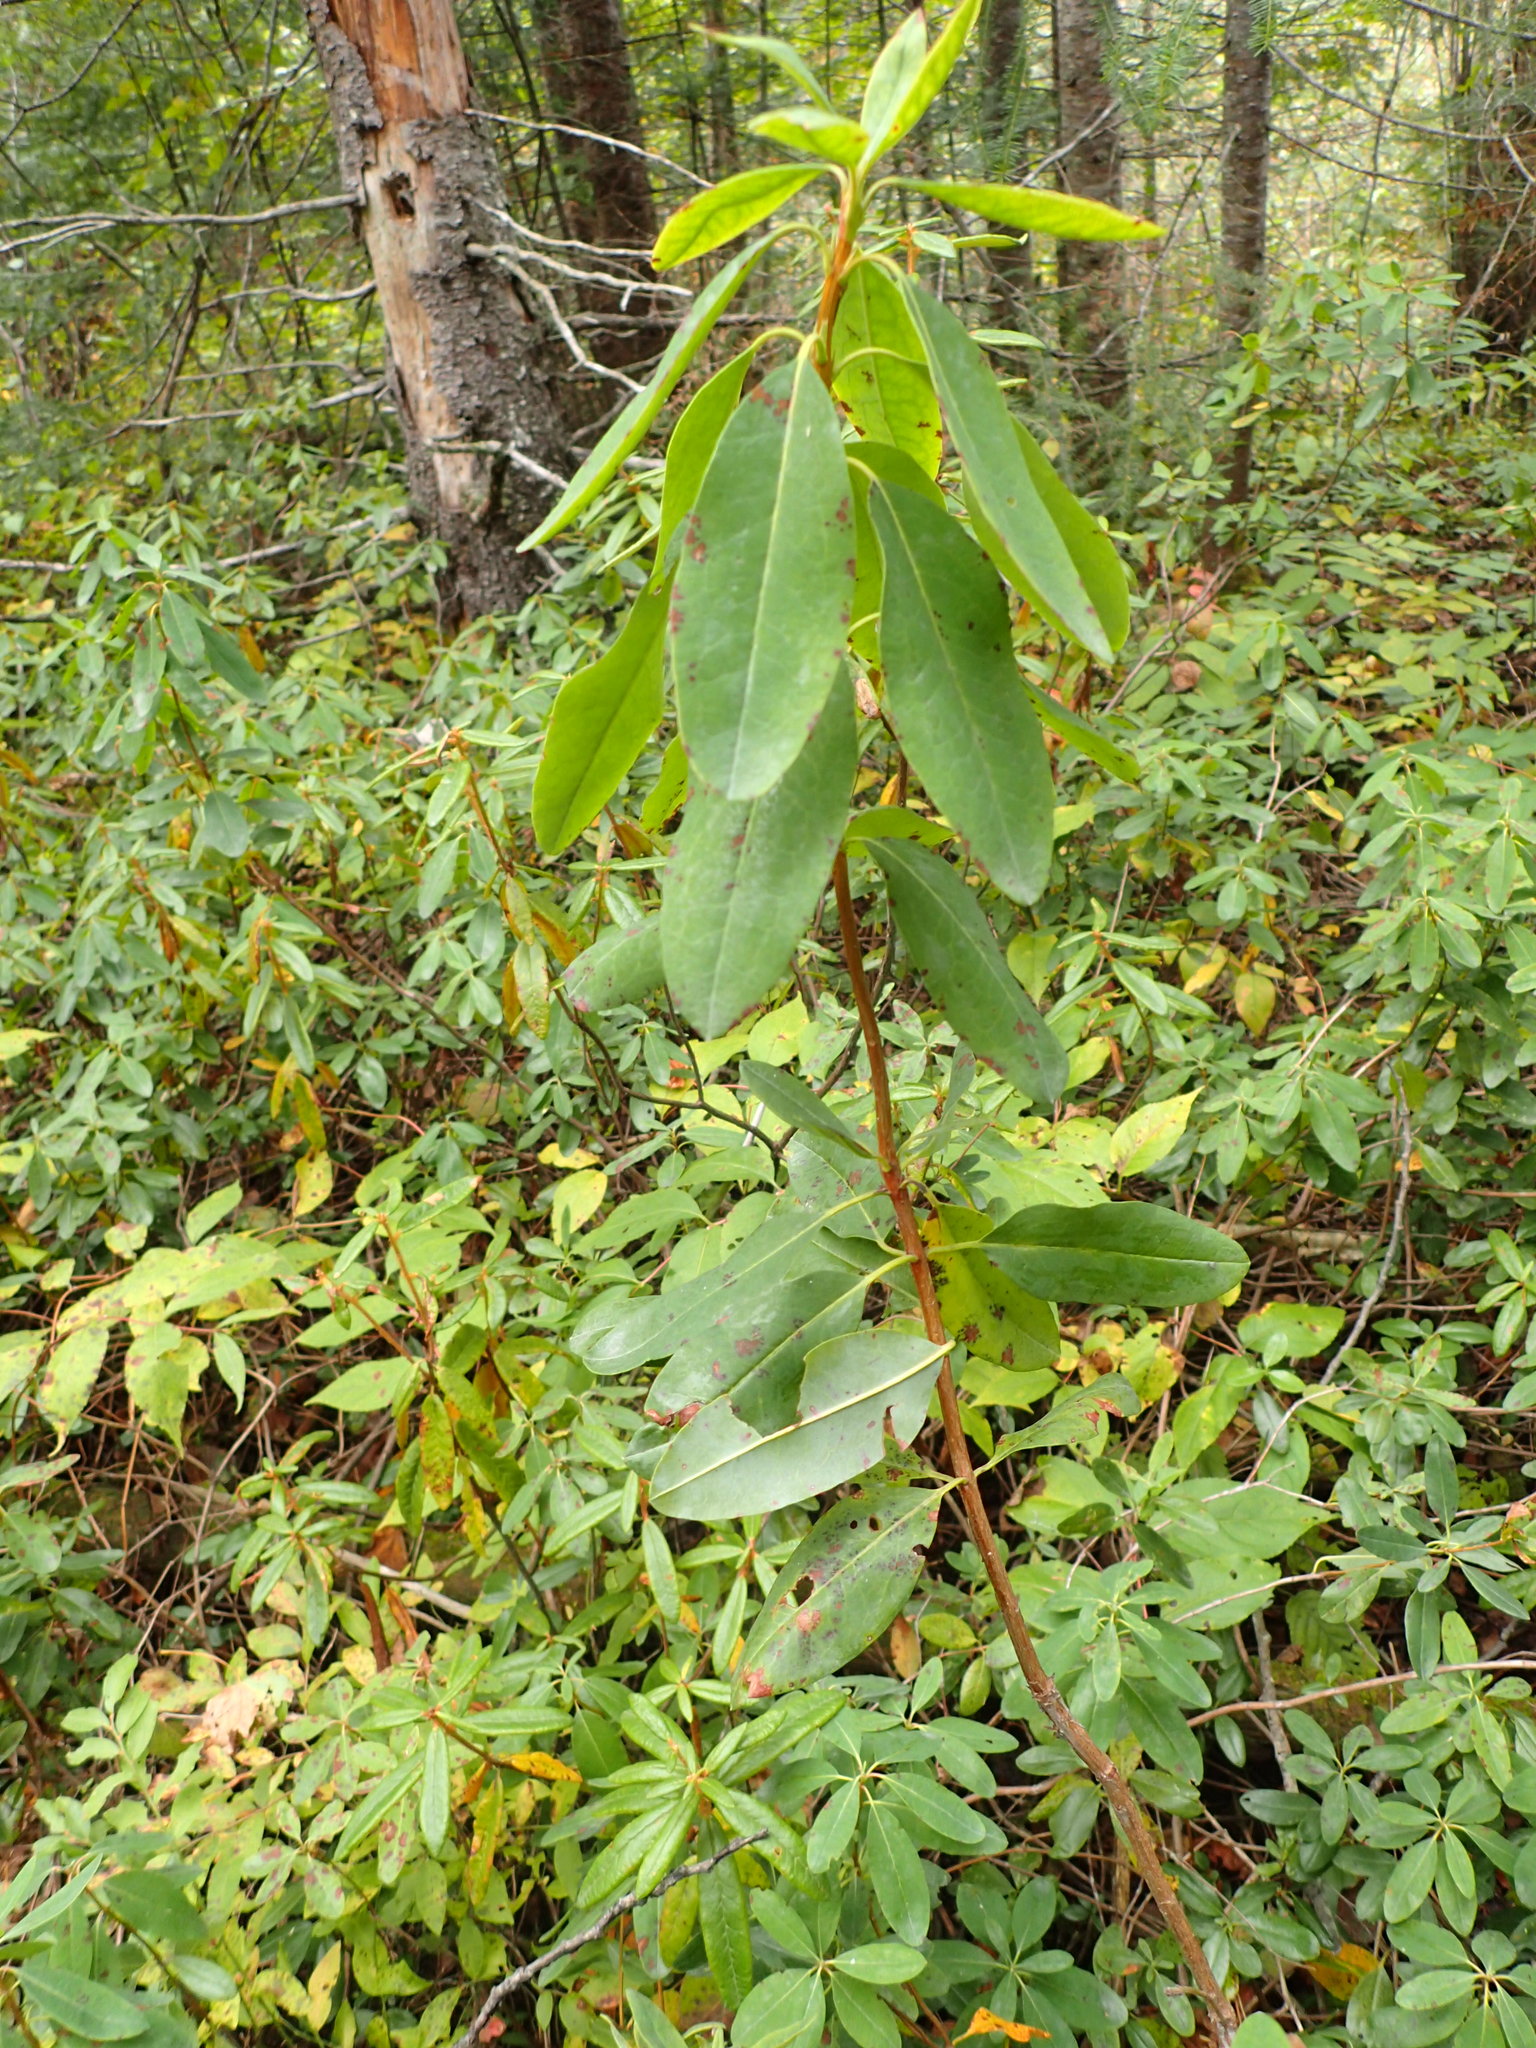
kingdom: Plantae
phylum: Tracheophyta
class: Magnoliopsida
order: Ericales
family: Ericaceae
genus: Kalmia
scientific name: Kalmia angustifolia
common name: Sheep-laurel
